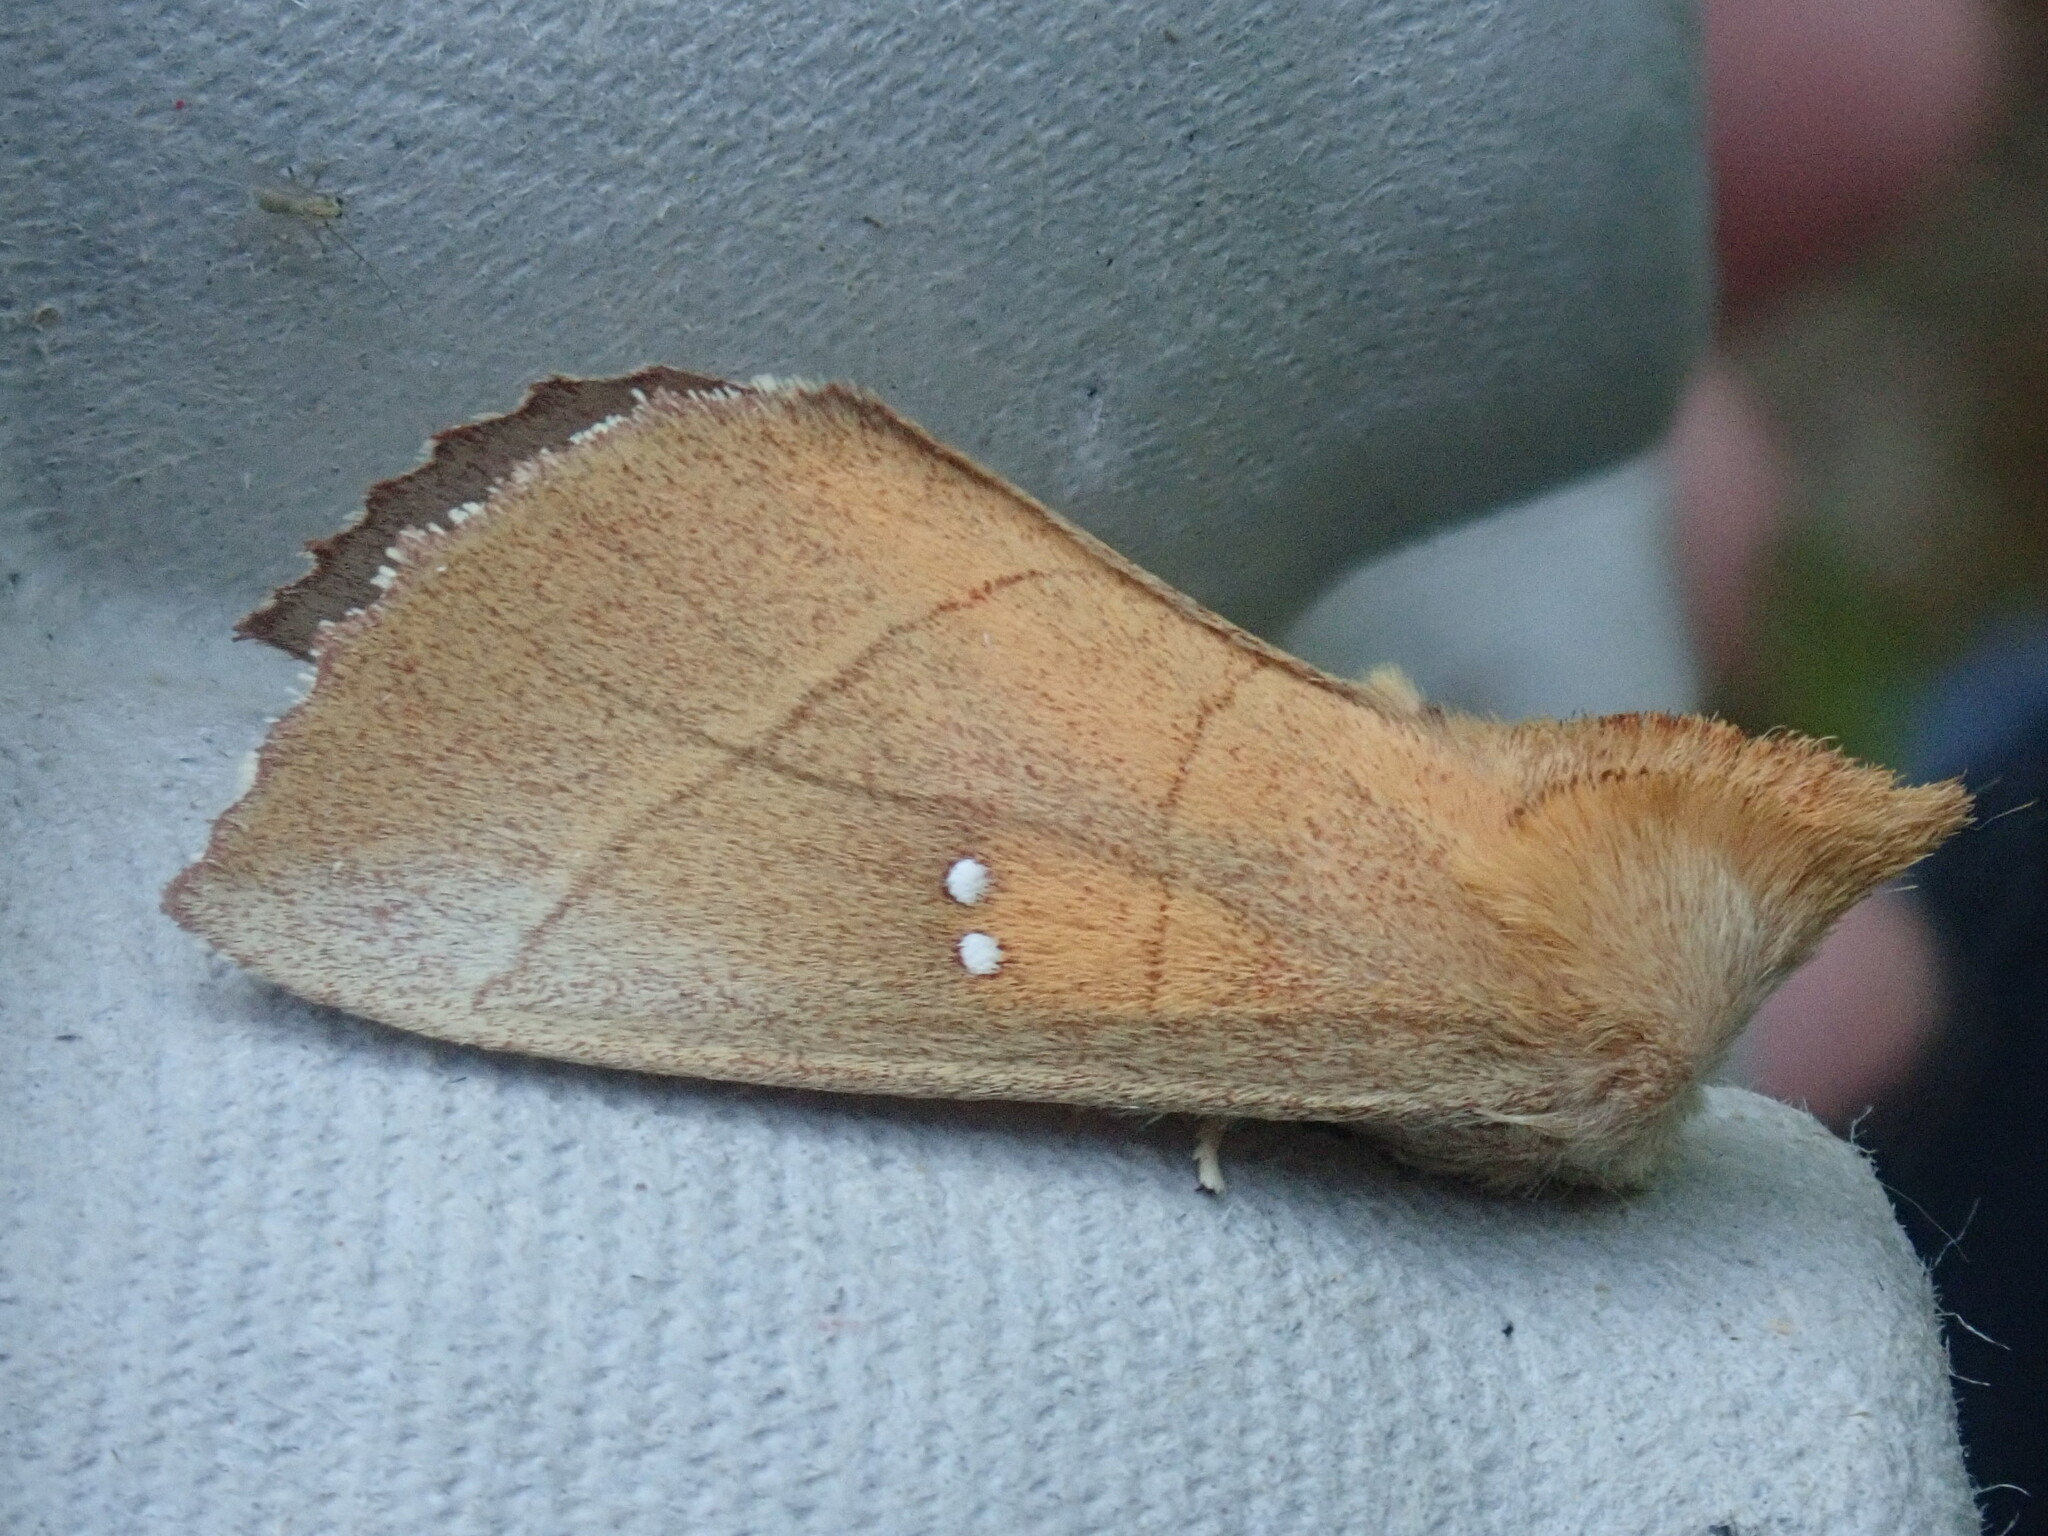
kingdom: Animalia
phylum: Arthropoda
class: Insecta
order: Lepidoptera
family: Notodontidae
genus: Nadata
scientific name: Nadata gibbosa
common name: White-dotted prominent
